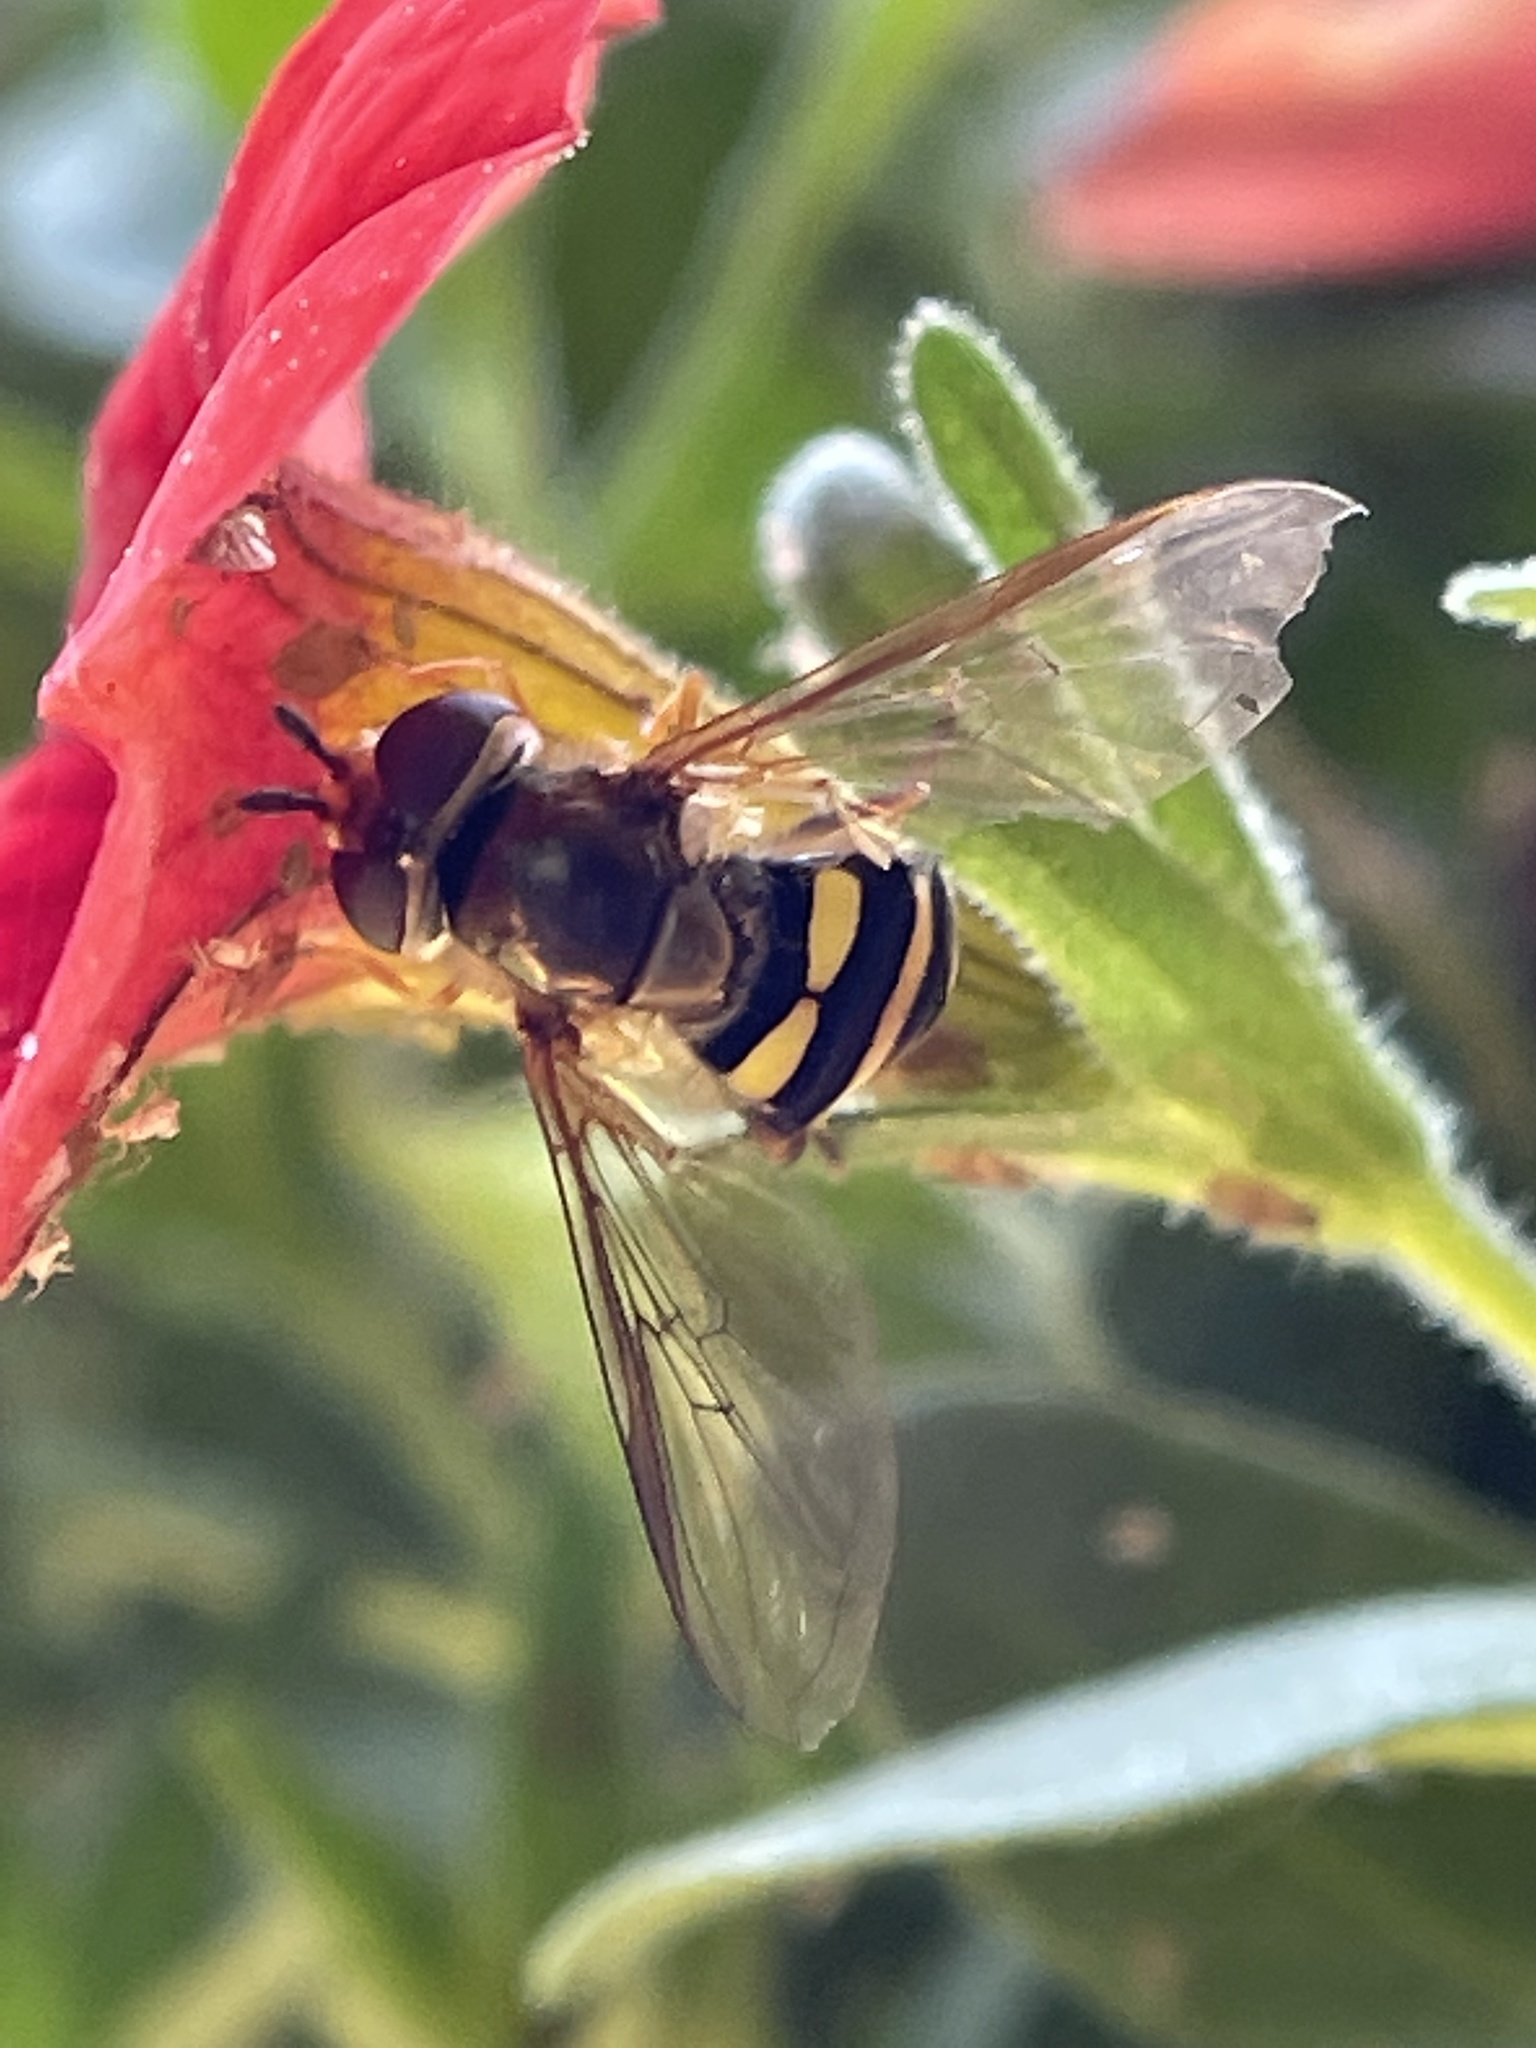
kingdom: Animalia
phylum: Arthropoda
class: Insecta
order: Diptera
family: Syrphidae
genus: Eupeodes
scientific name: Eupeodes
